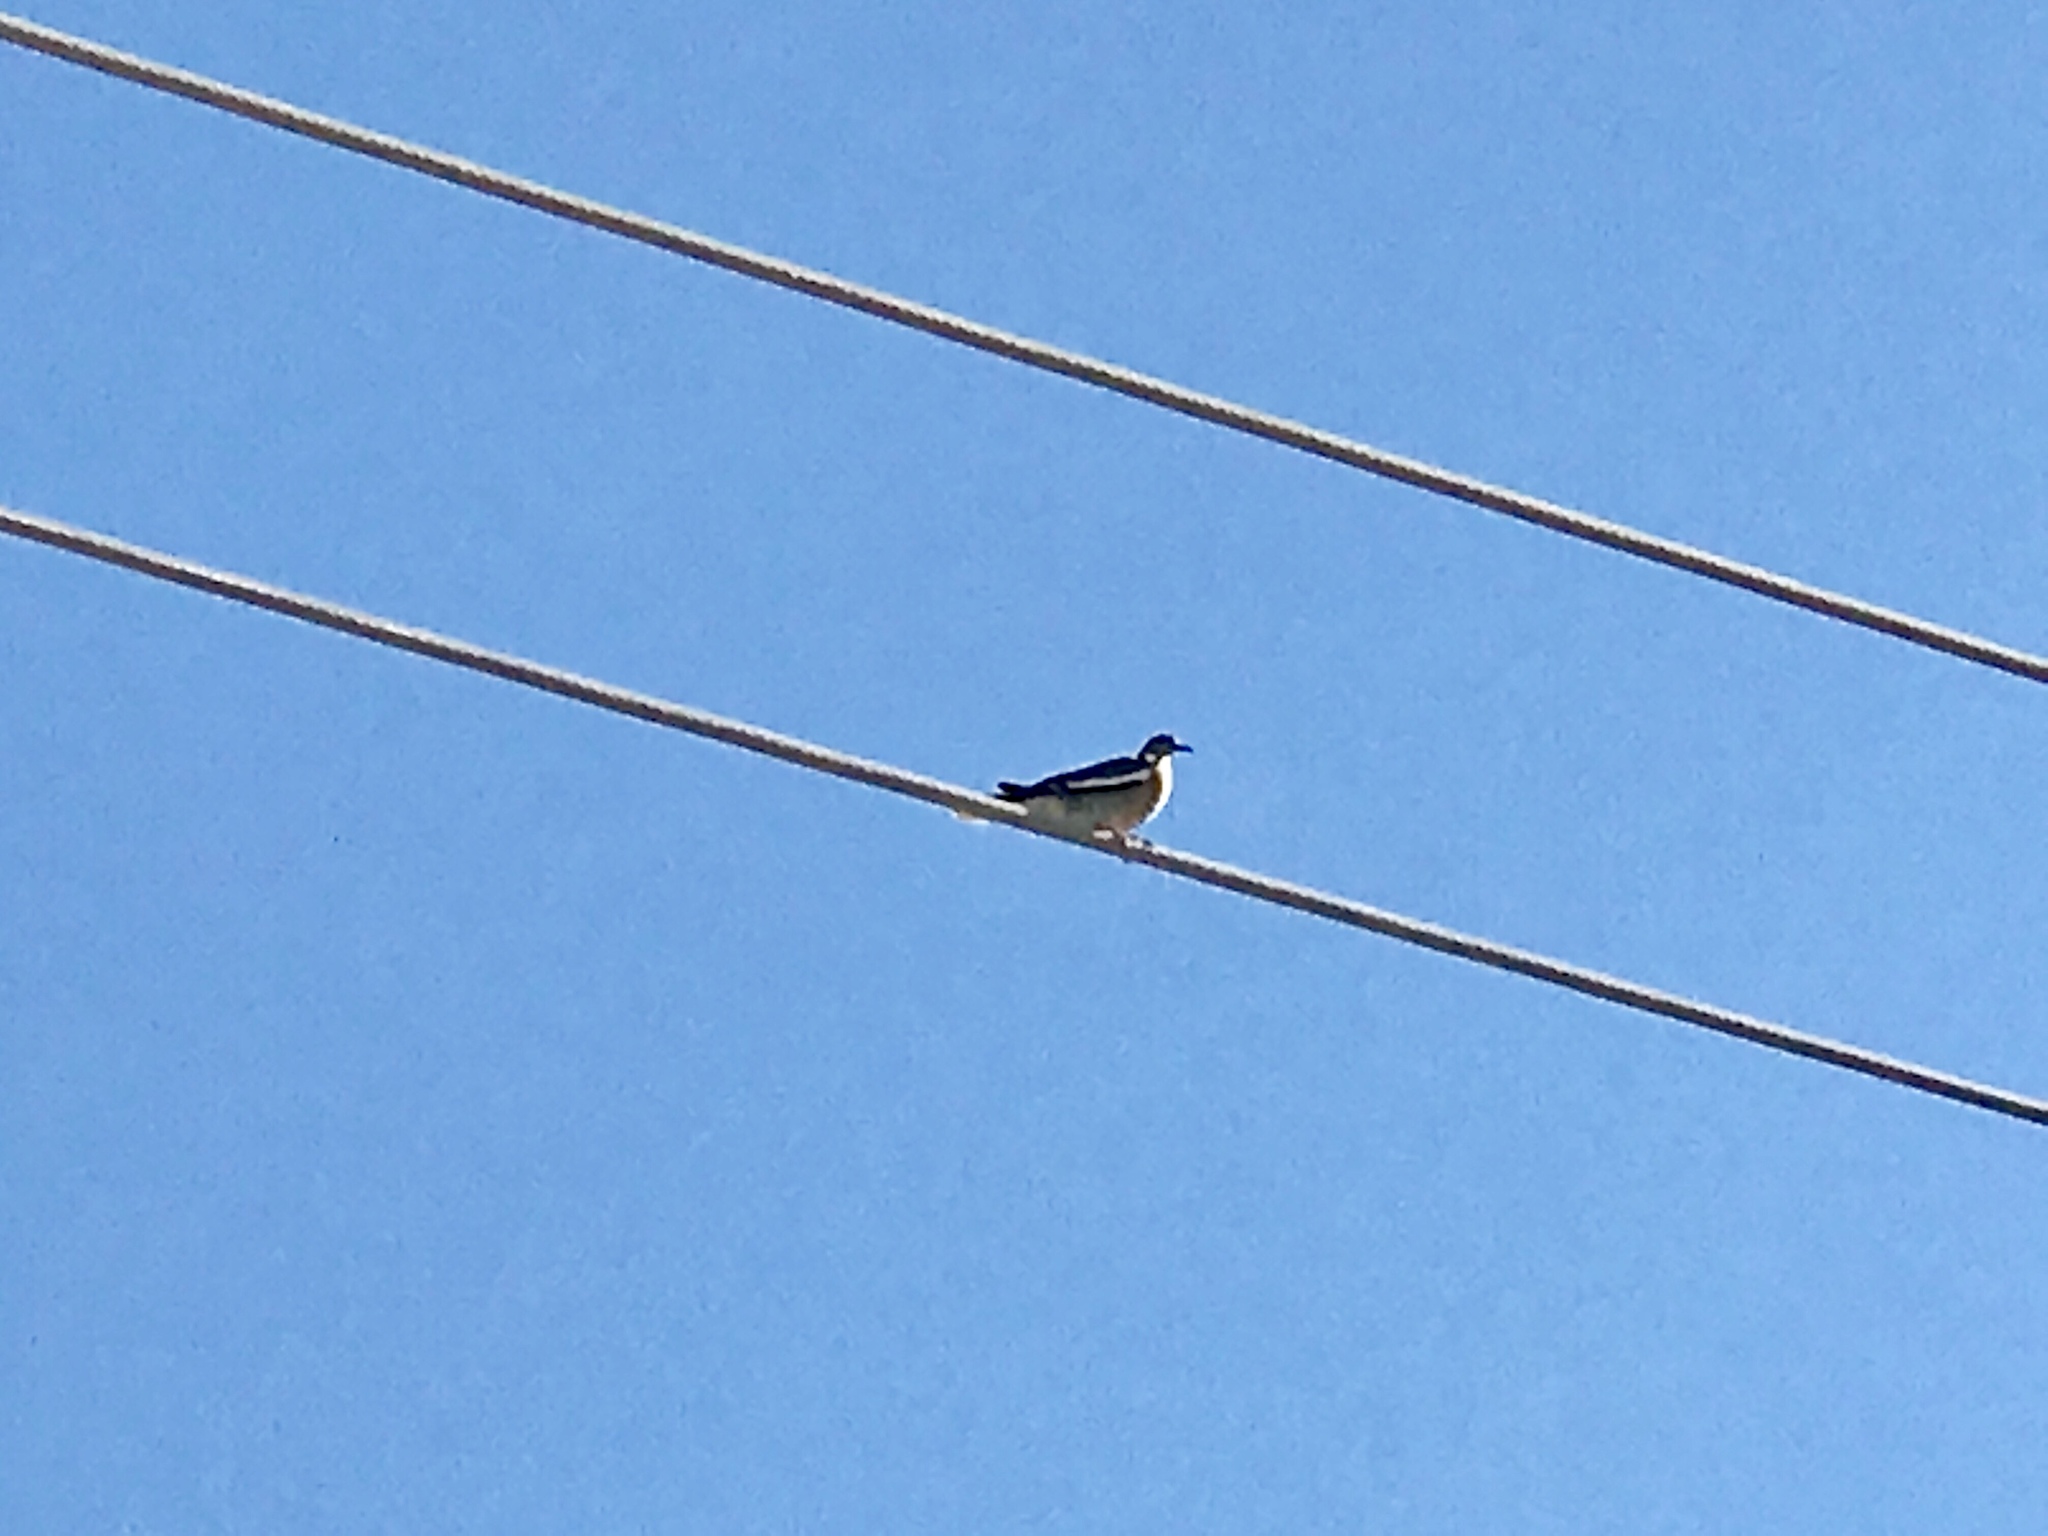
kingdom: Animalia
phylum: Chordata
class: Aves
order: Columbiformes
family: Columbidae
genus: Zenaida
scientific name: Zenaida asiatica
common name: White-winged dove
